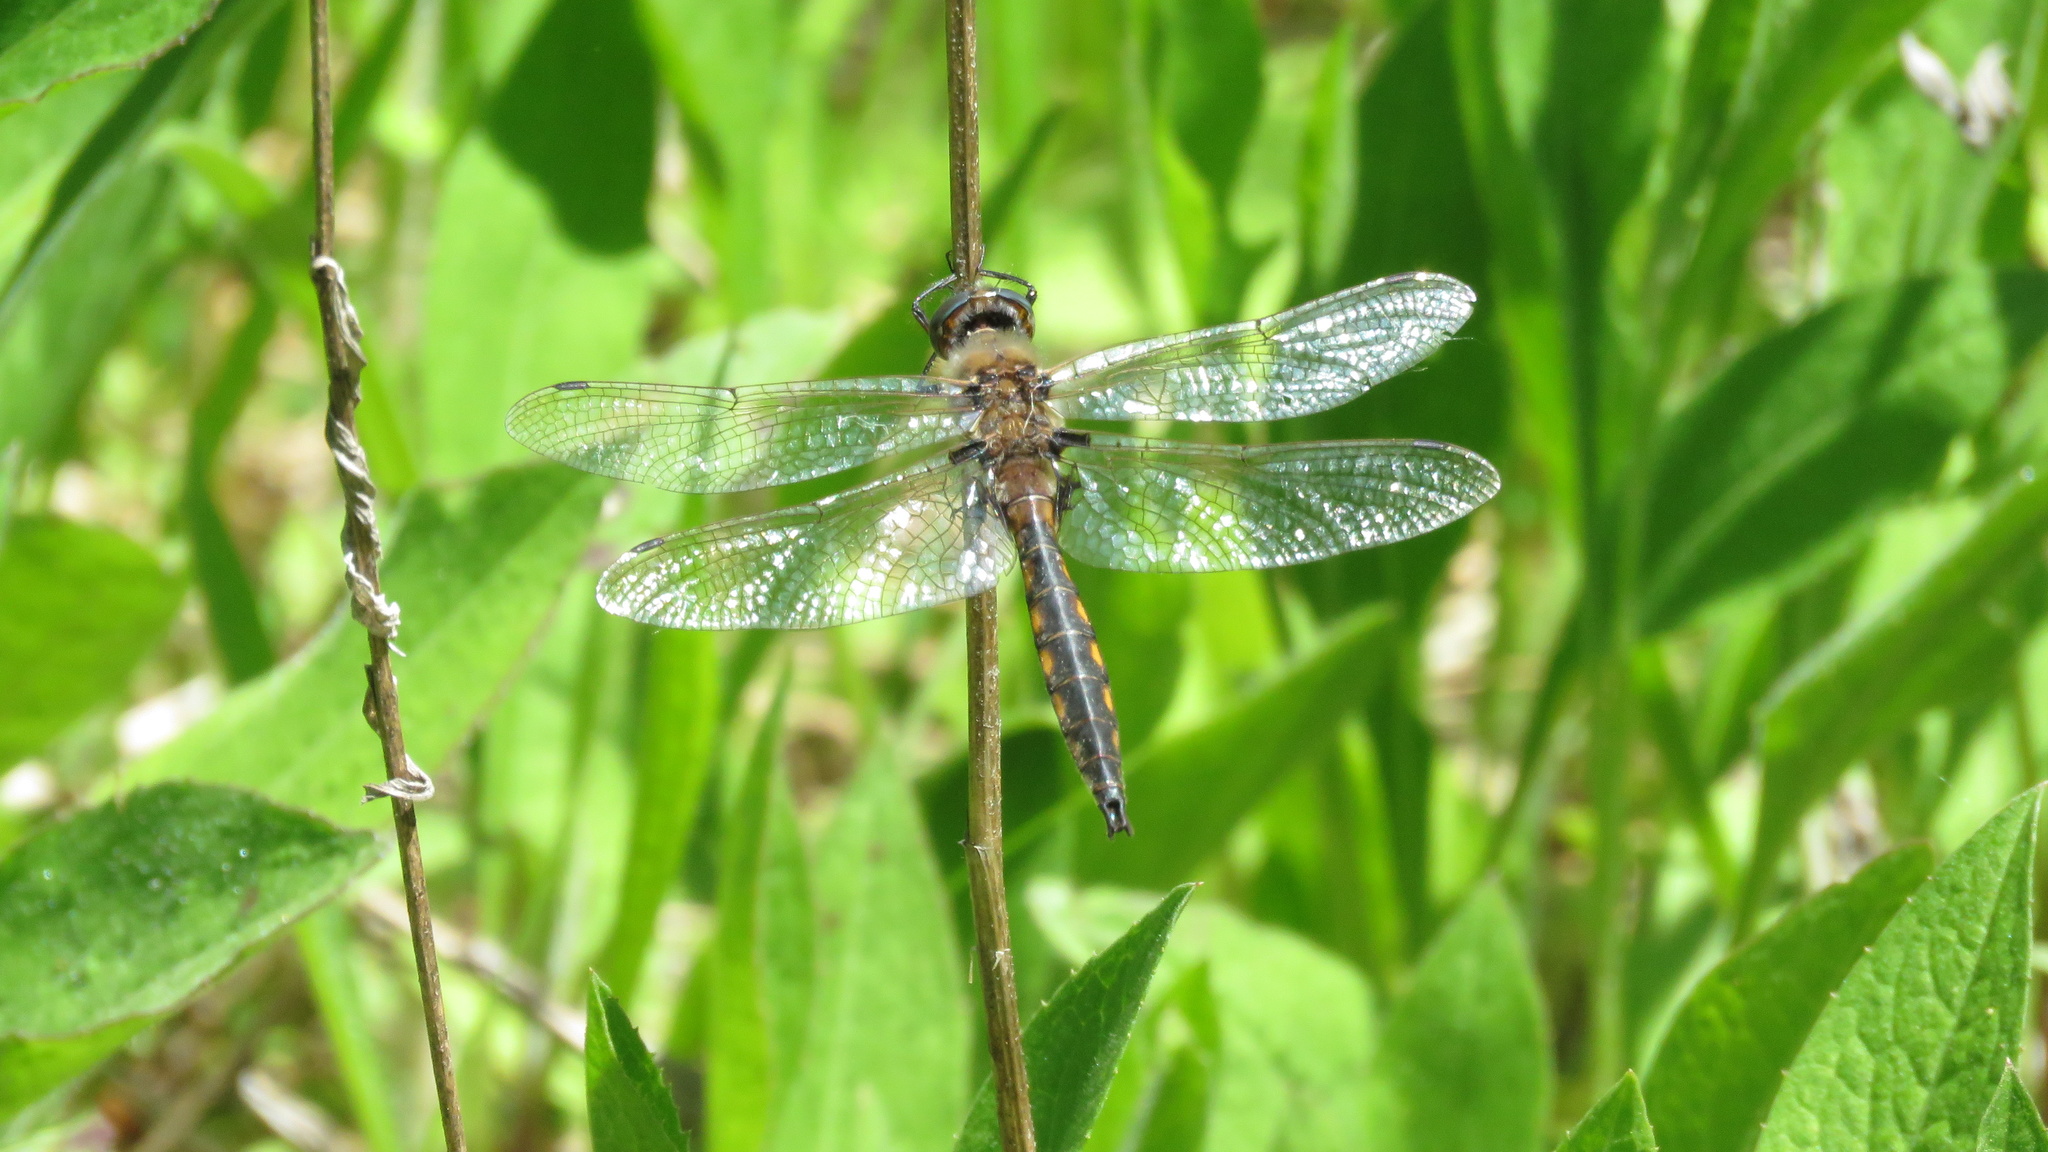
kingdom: Animalia
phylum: Arthropoda
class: Insecta
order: Odonata
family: Corduliidae
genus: Epitheca
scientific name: Epitheca canis
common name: Beaverpond baskettail
